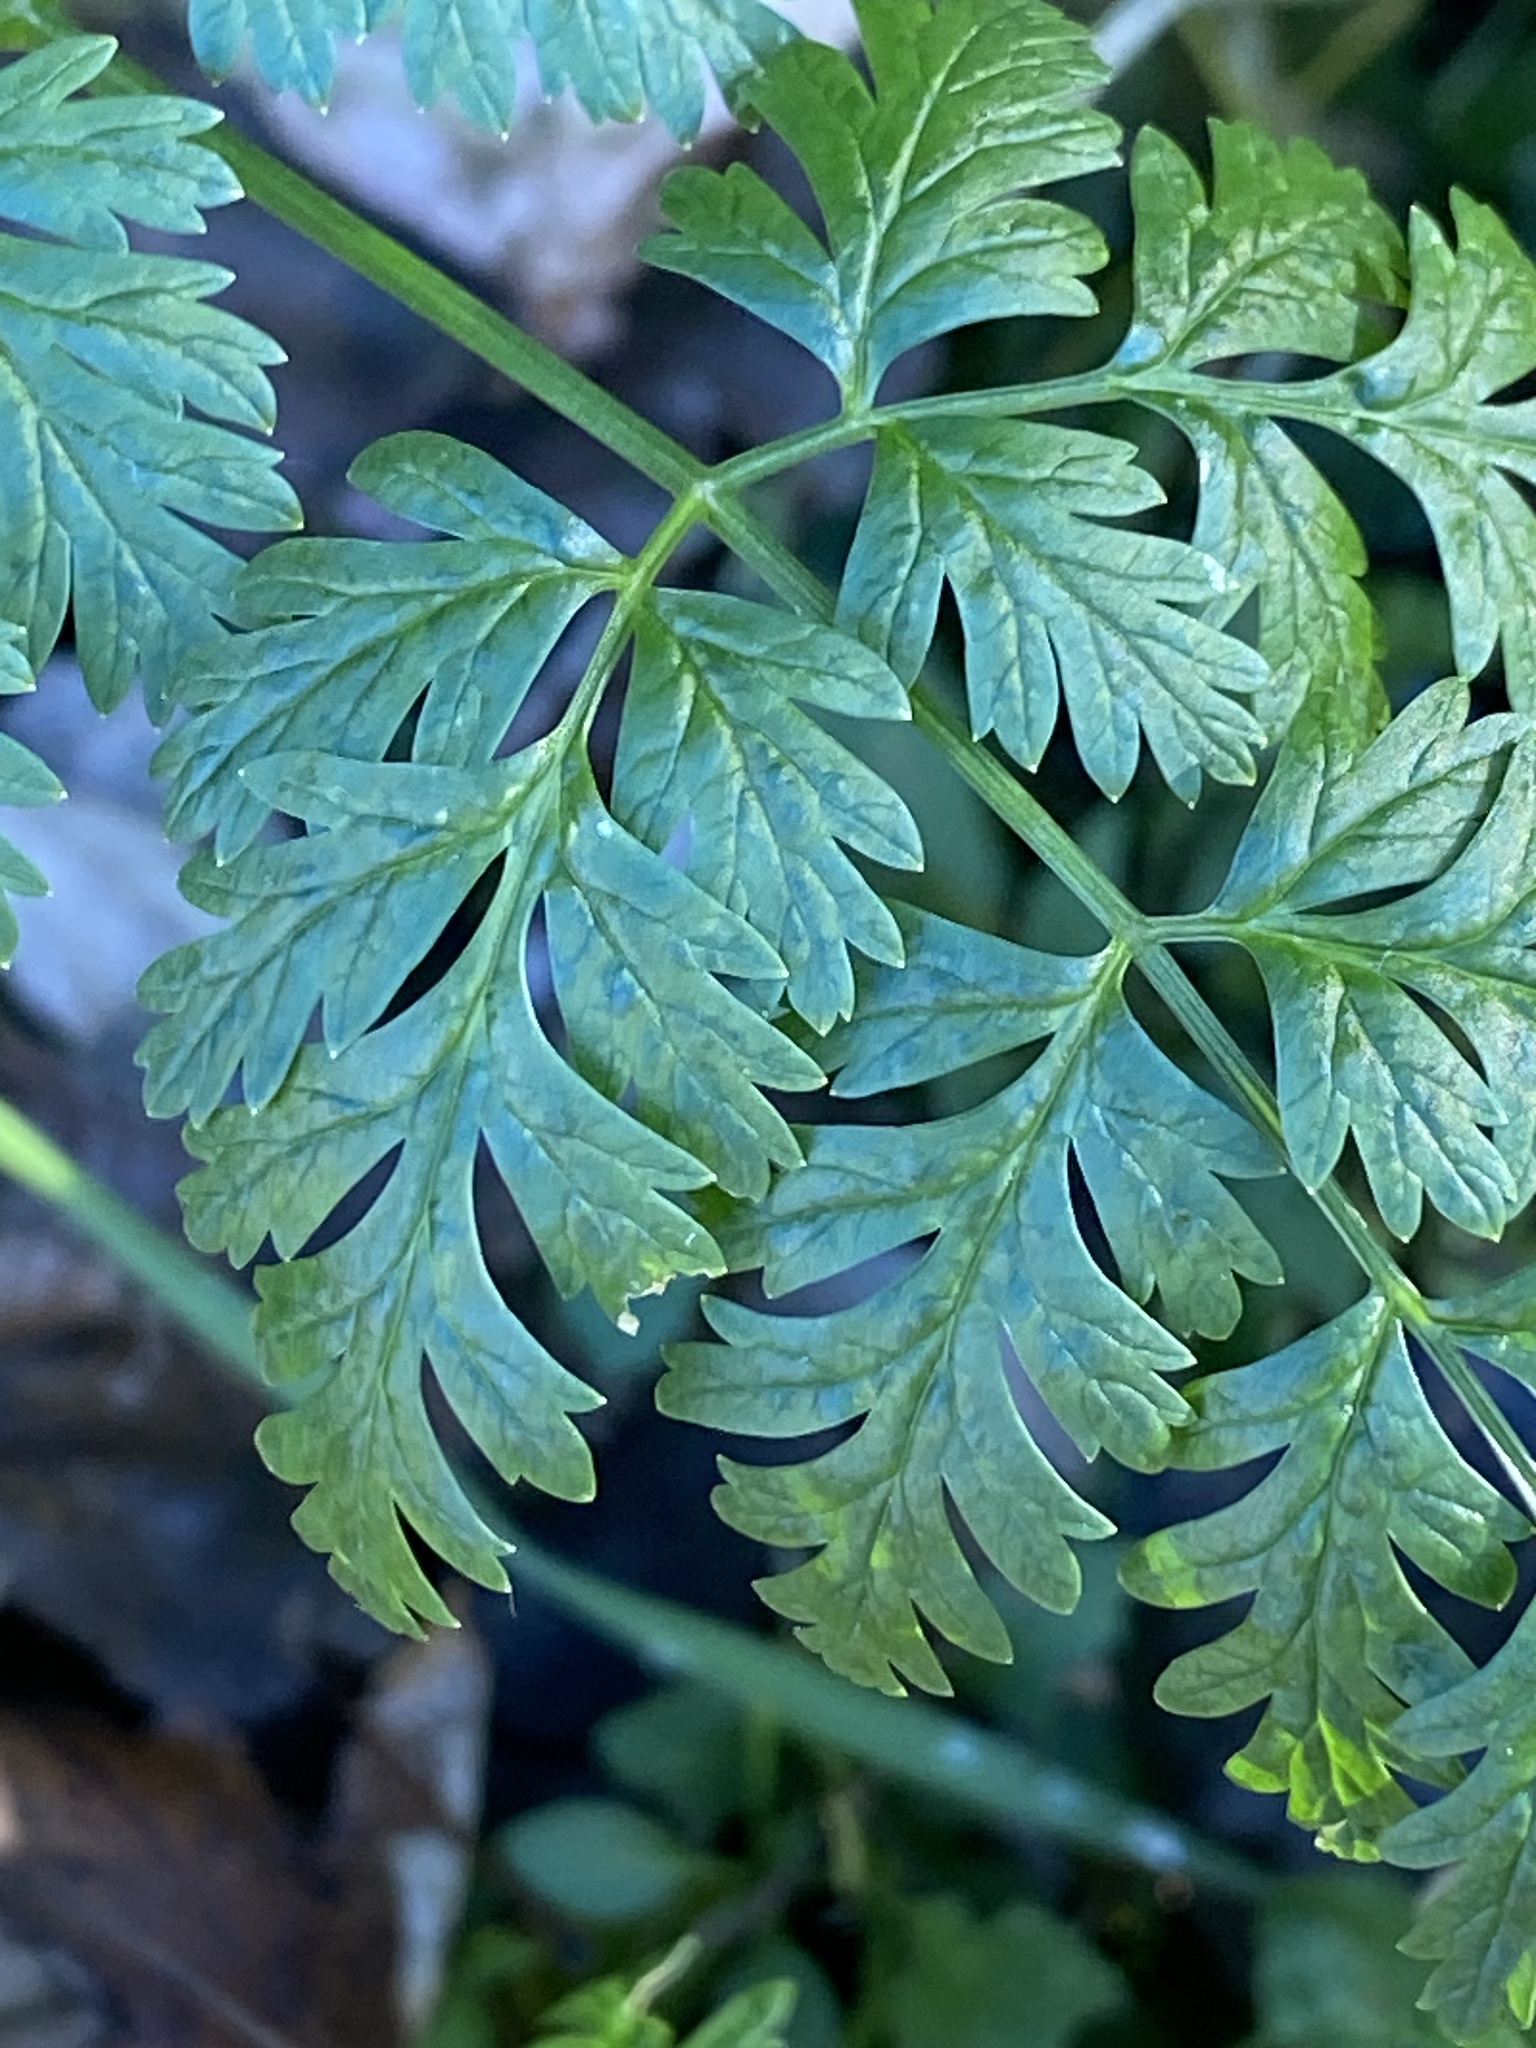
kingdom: Plantae
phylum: Tracheophyta
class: Magnoliopsida
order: Apiales
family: Apiaceae
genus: Conium
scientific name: Conium maculatum
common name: Hemlock
